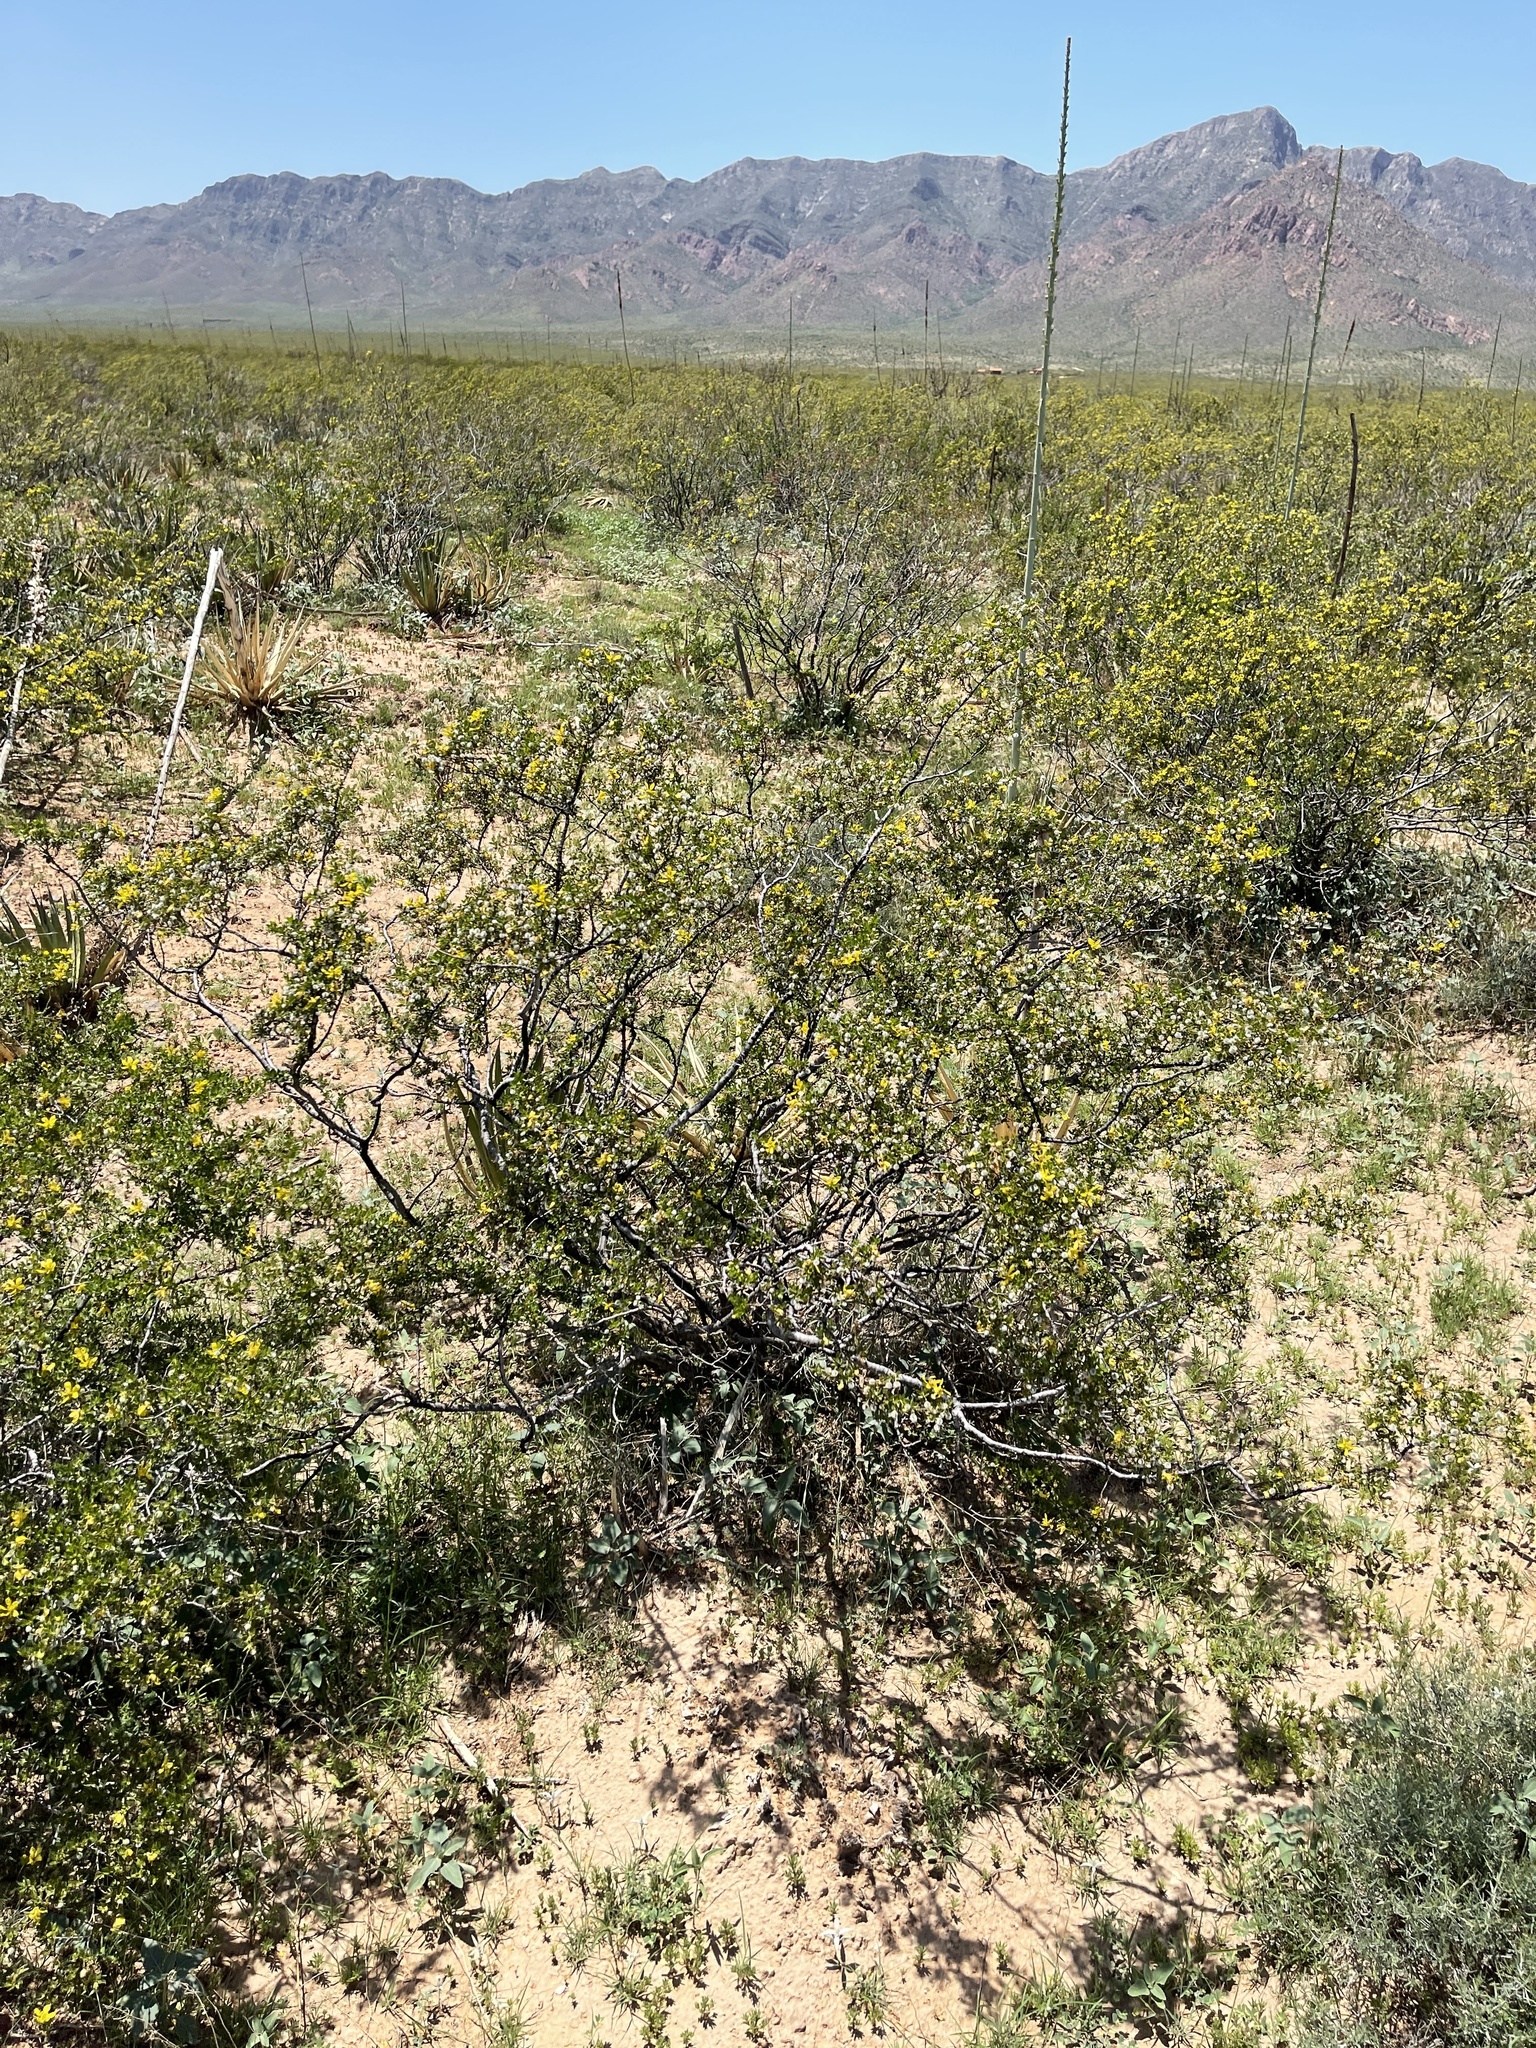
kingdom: Plantae
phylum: Tracheophyta
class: Magnoliopsida
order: Zygophyllales
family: Zygophyllaceae
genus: Larrea
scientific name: Larrea tridentata
